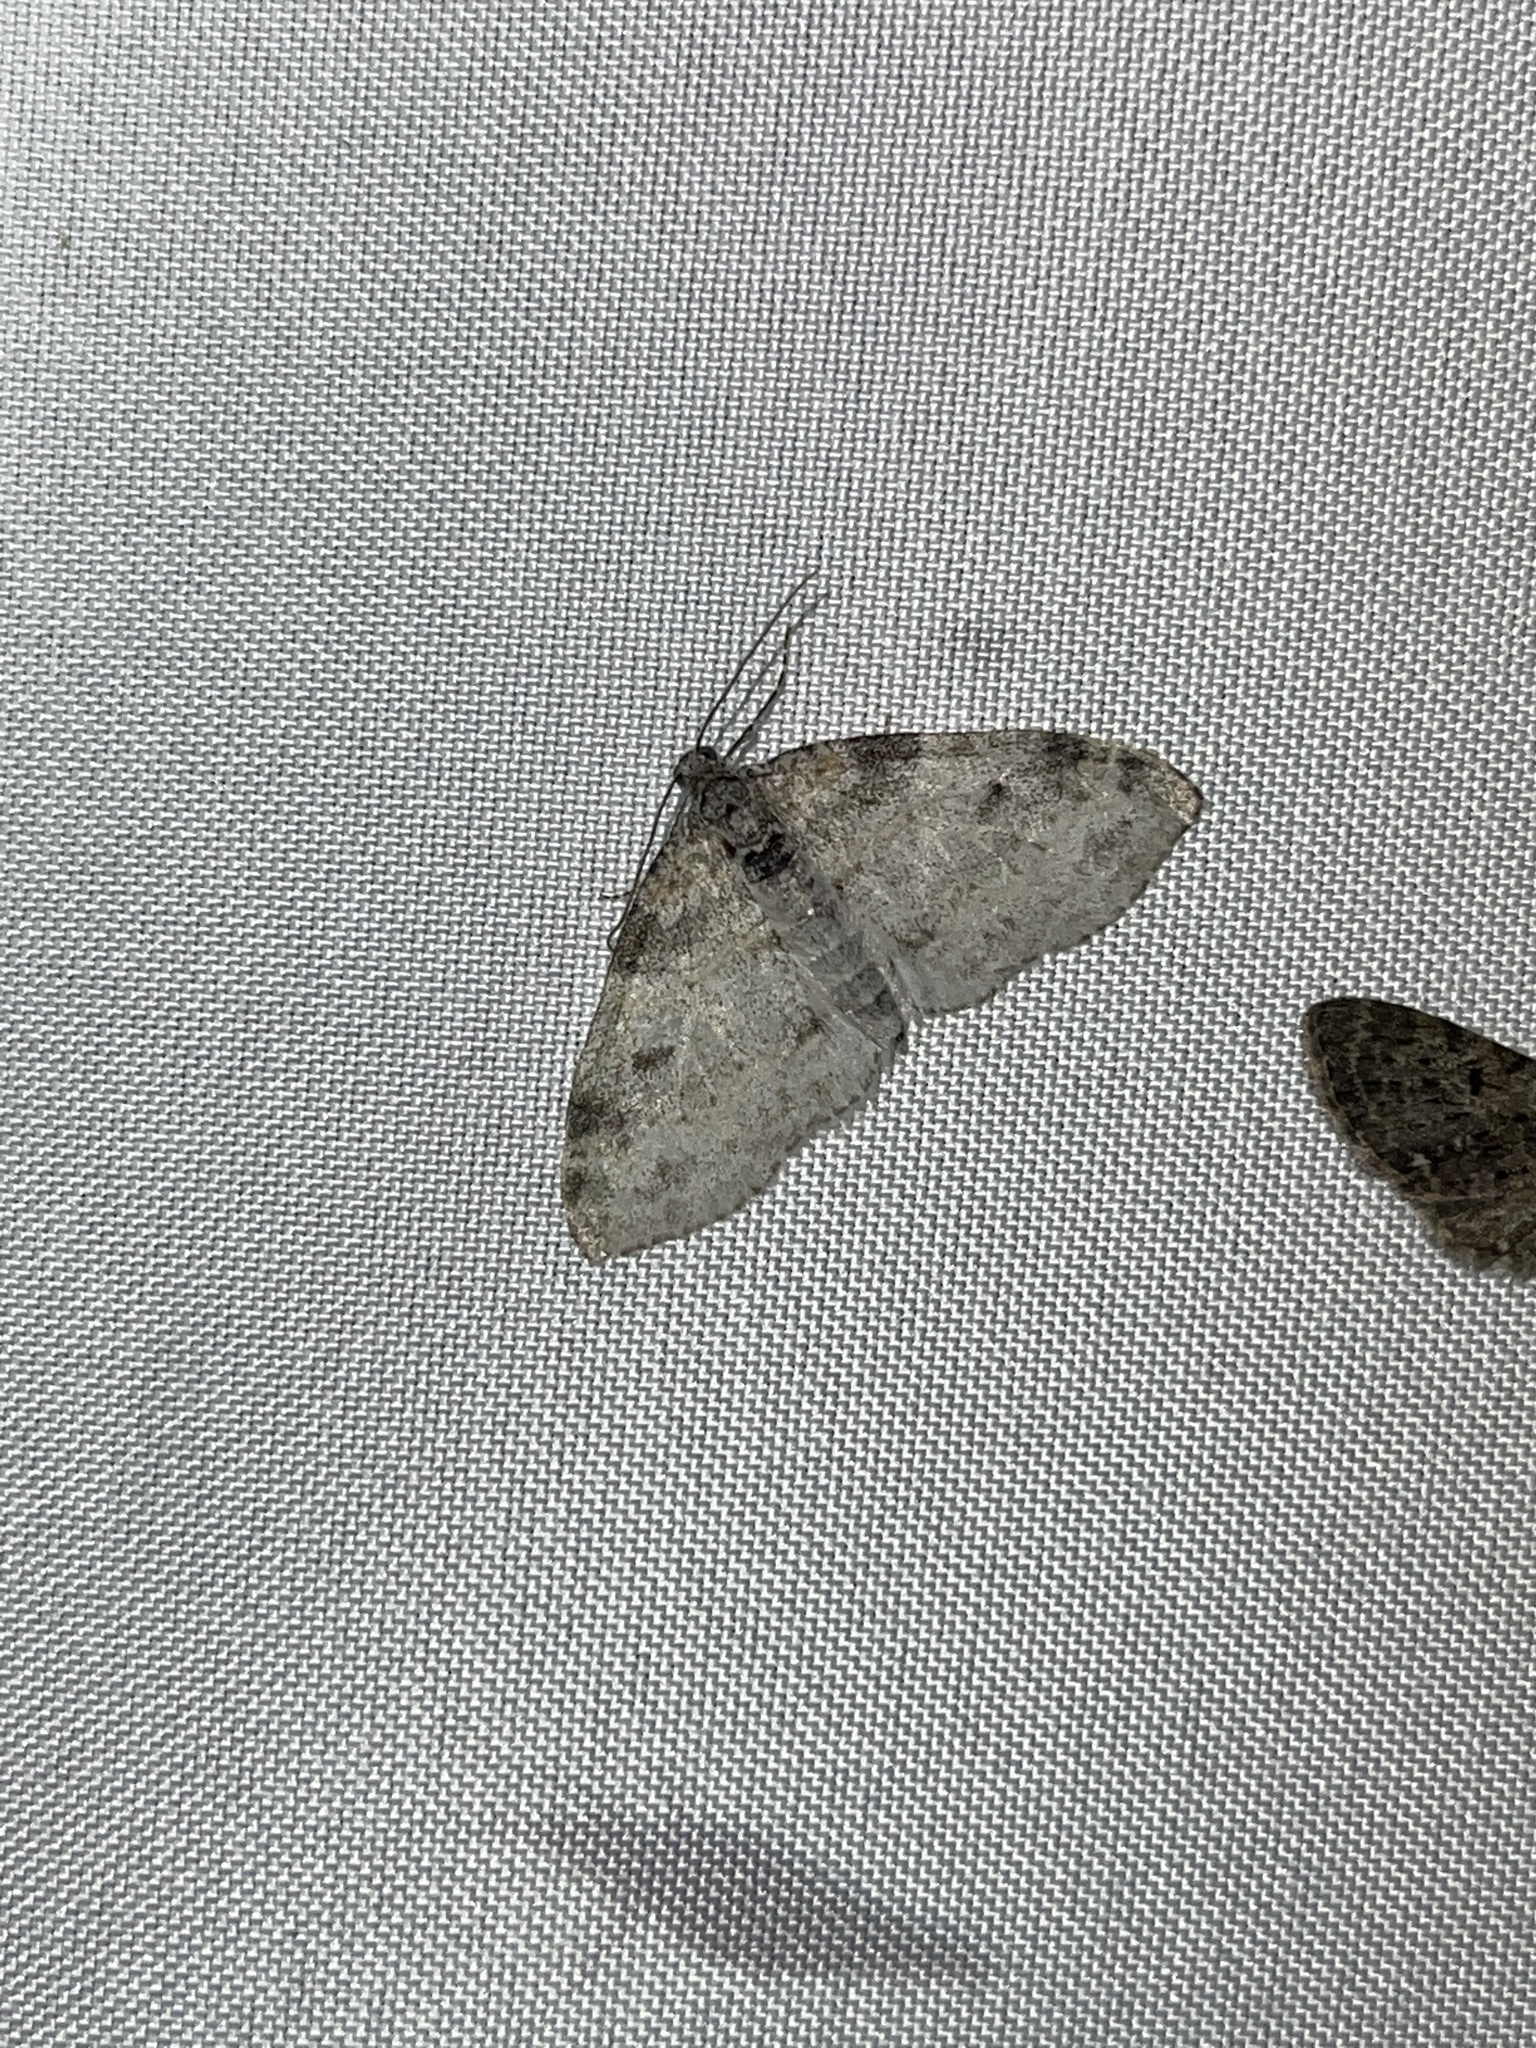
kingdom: Animalia
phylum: Arthropoda
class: Insecta
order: Lepidoptera
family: Geometridae
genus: Lobophora
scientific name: Lobophora nivigerata
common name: Powdered bigwing
